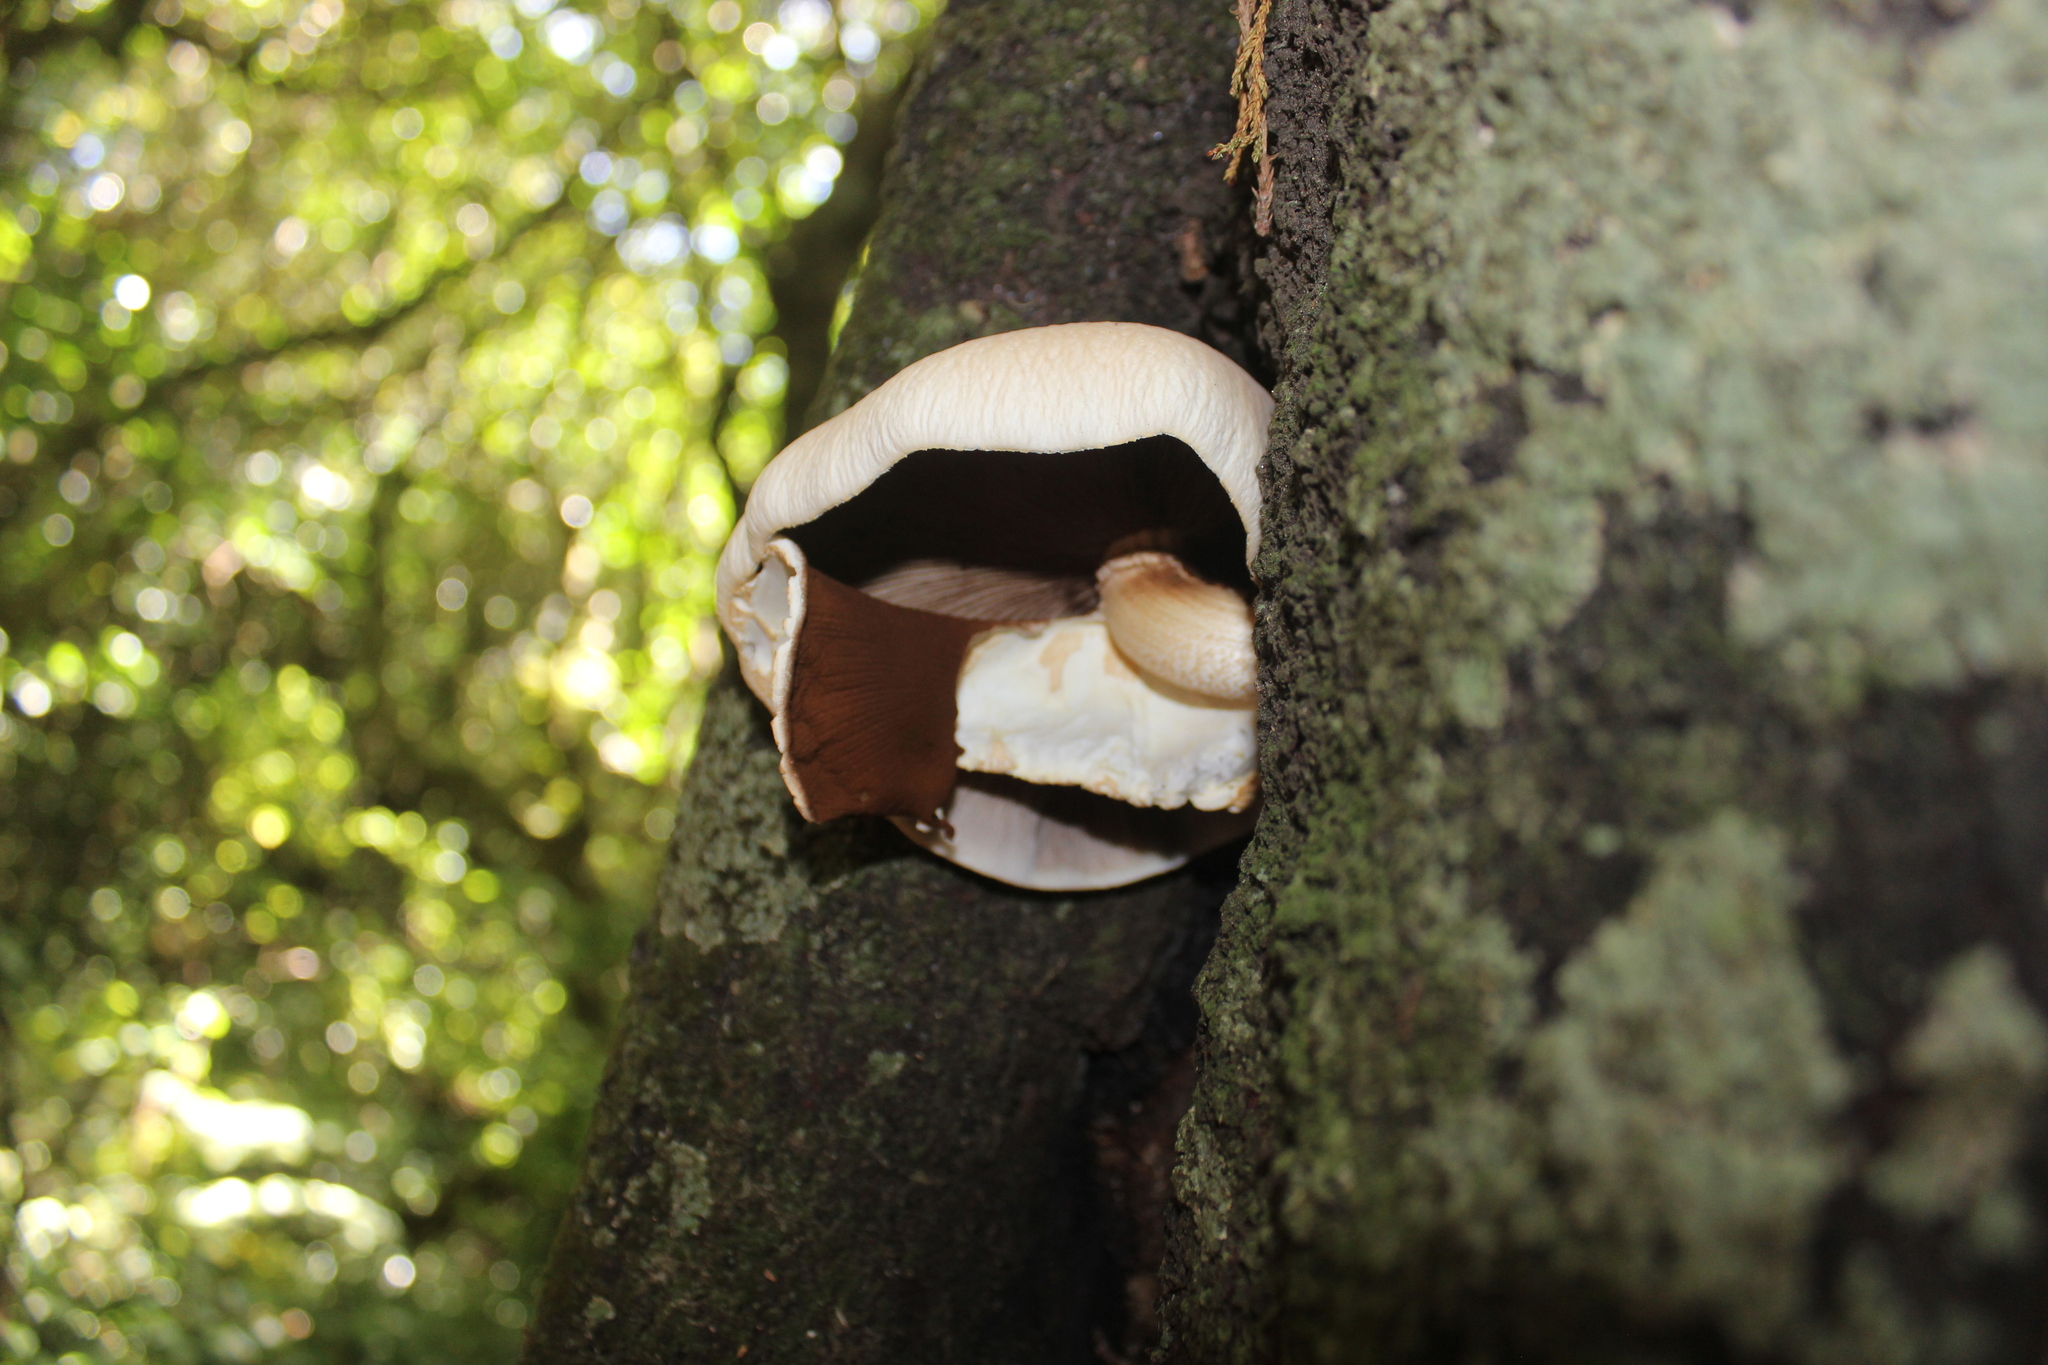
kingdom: Fungi
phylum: Basidiomycota
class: Agaricomycetes
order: Agaricales
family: Tubariaceae
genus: Cyclocybe
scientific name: Cyclocybe parasitica
